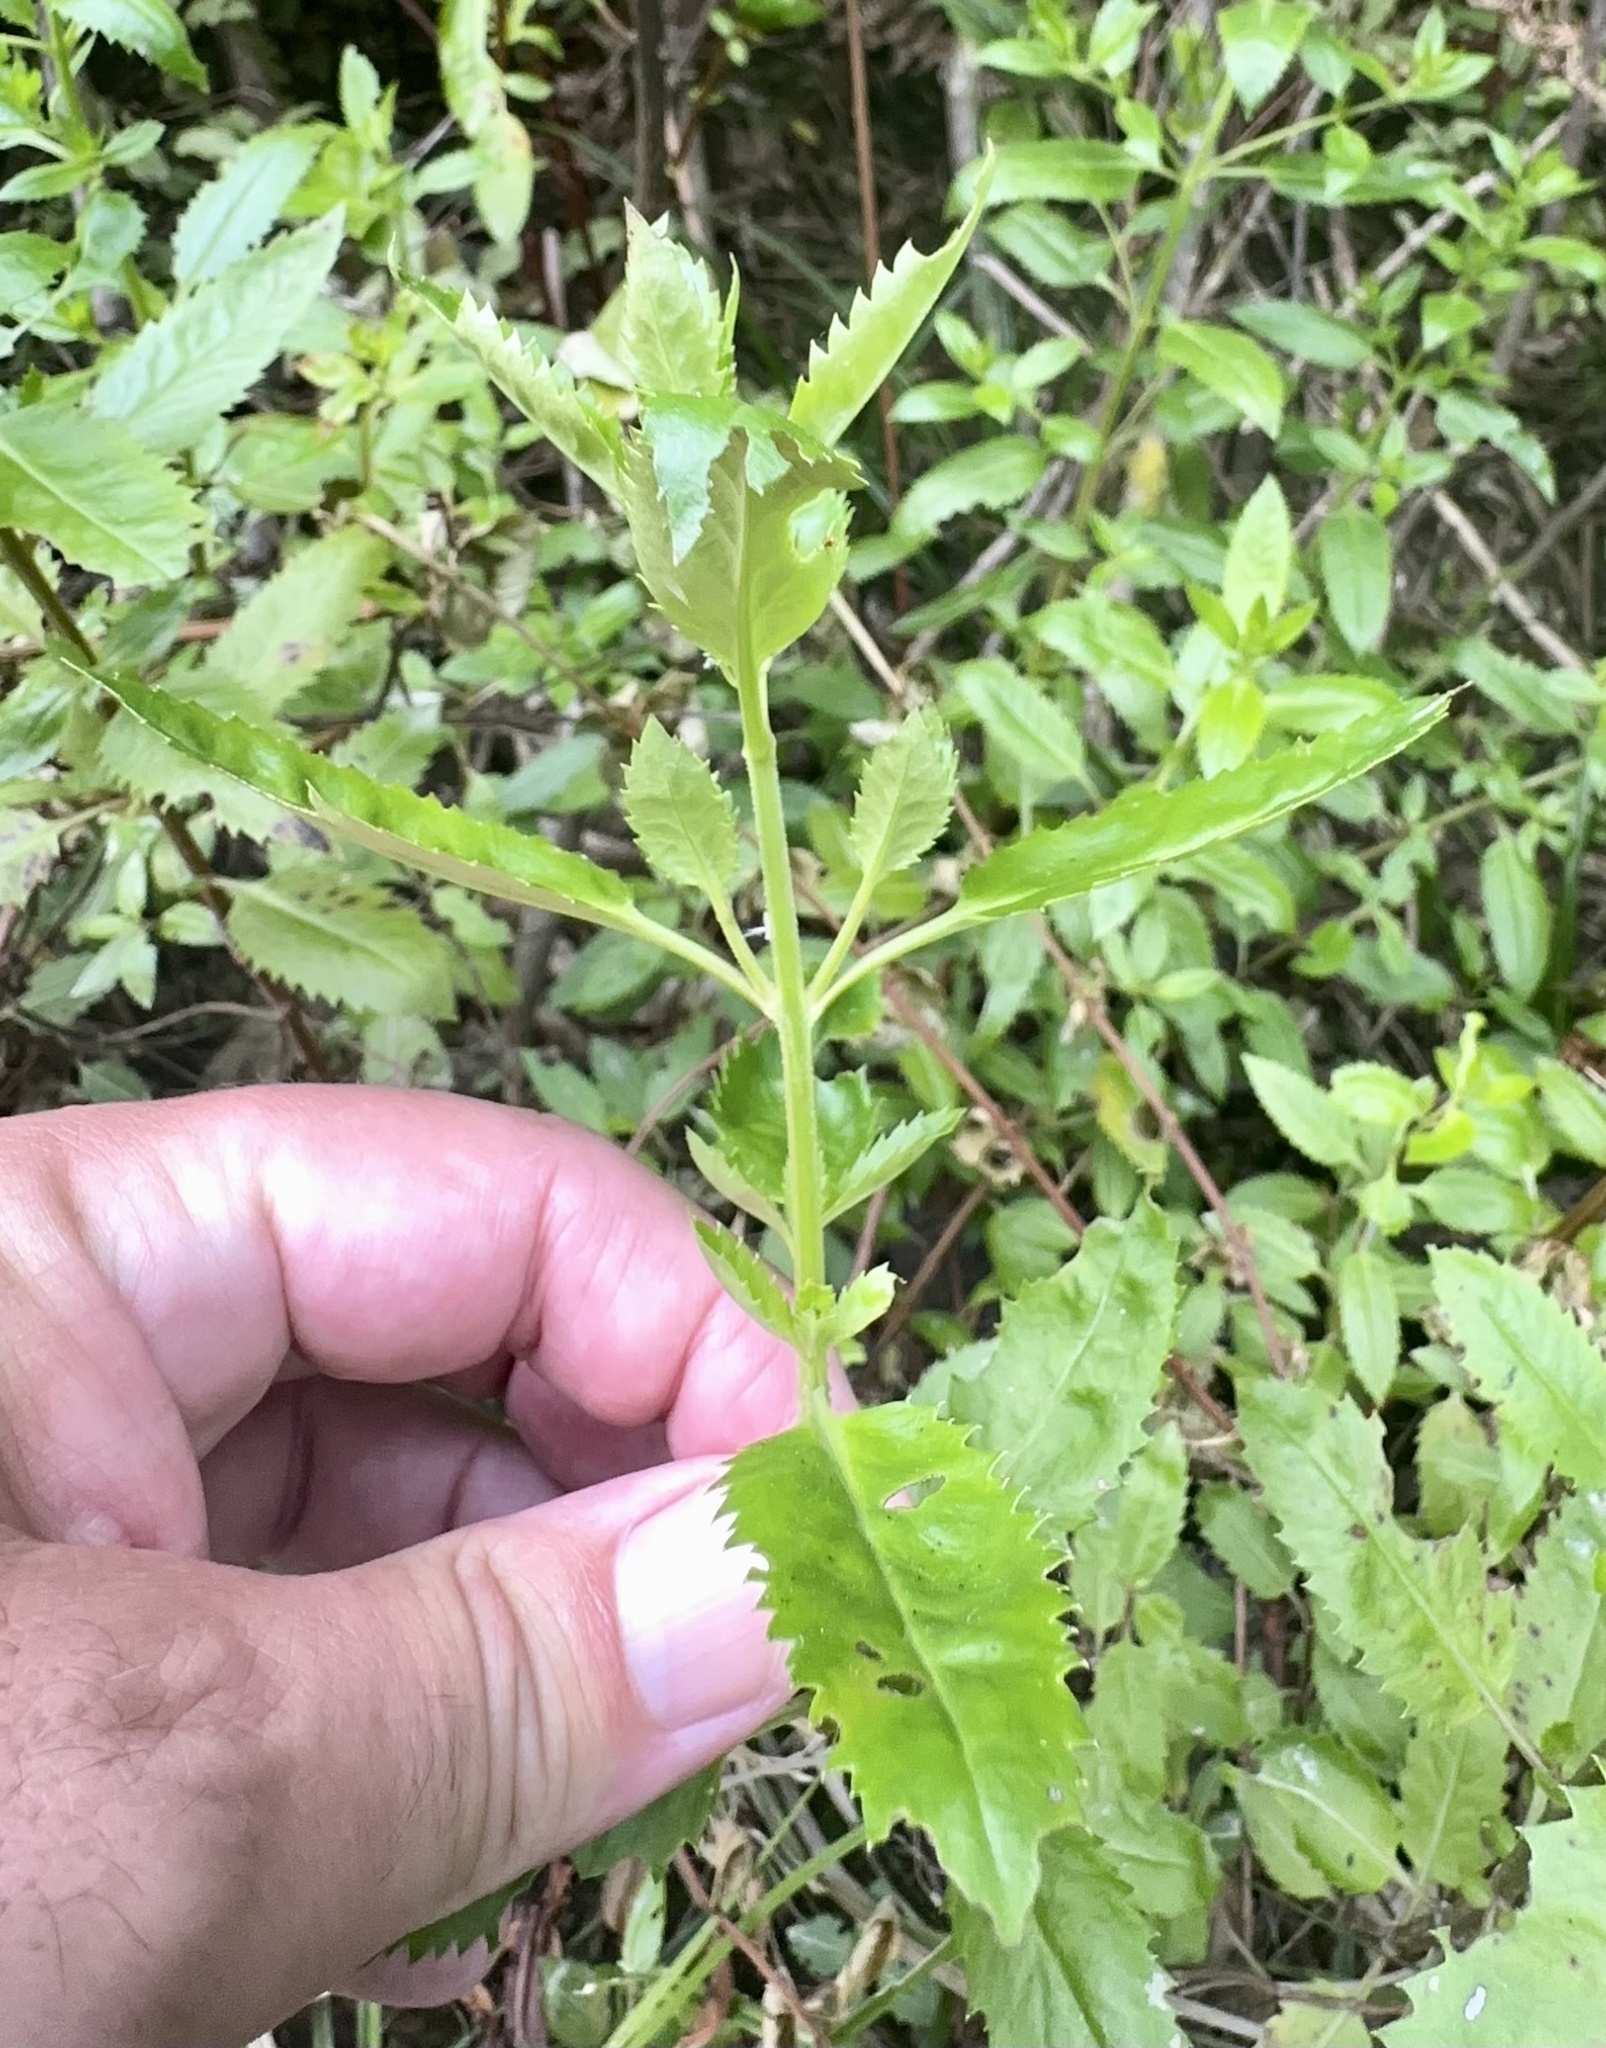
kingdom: Plantae
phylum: Tracheophyta
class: Magnoliopsida
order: Saxifragales
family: Haloragaceae
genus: Haloragis
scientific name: Haloragis erecta
